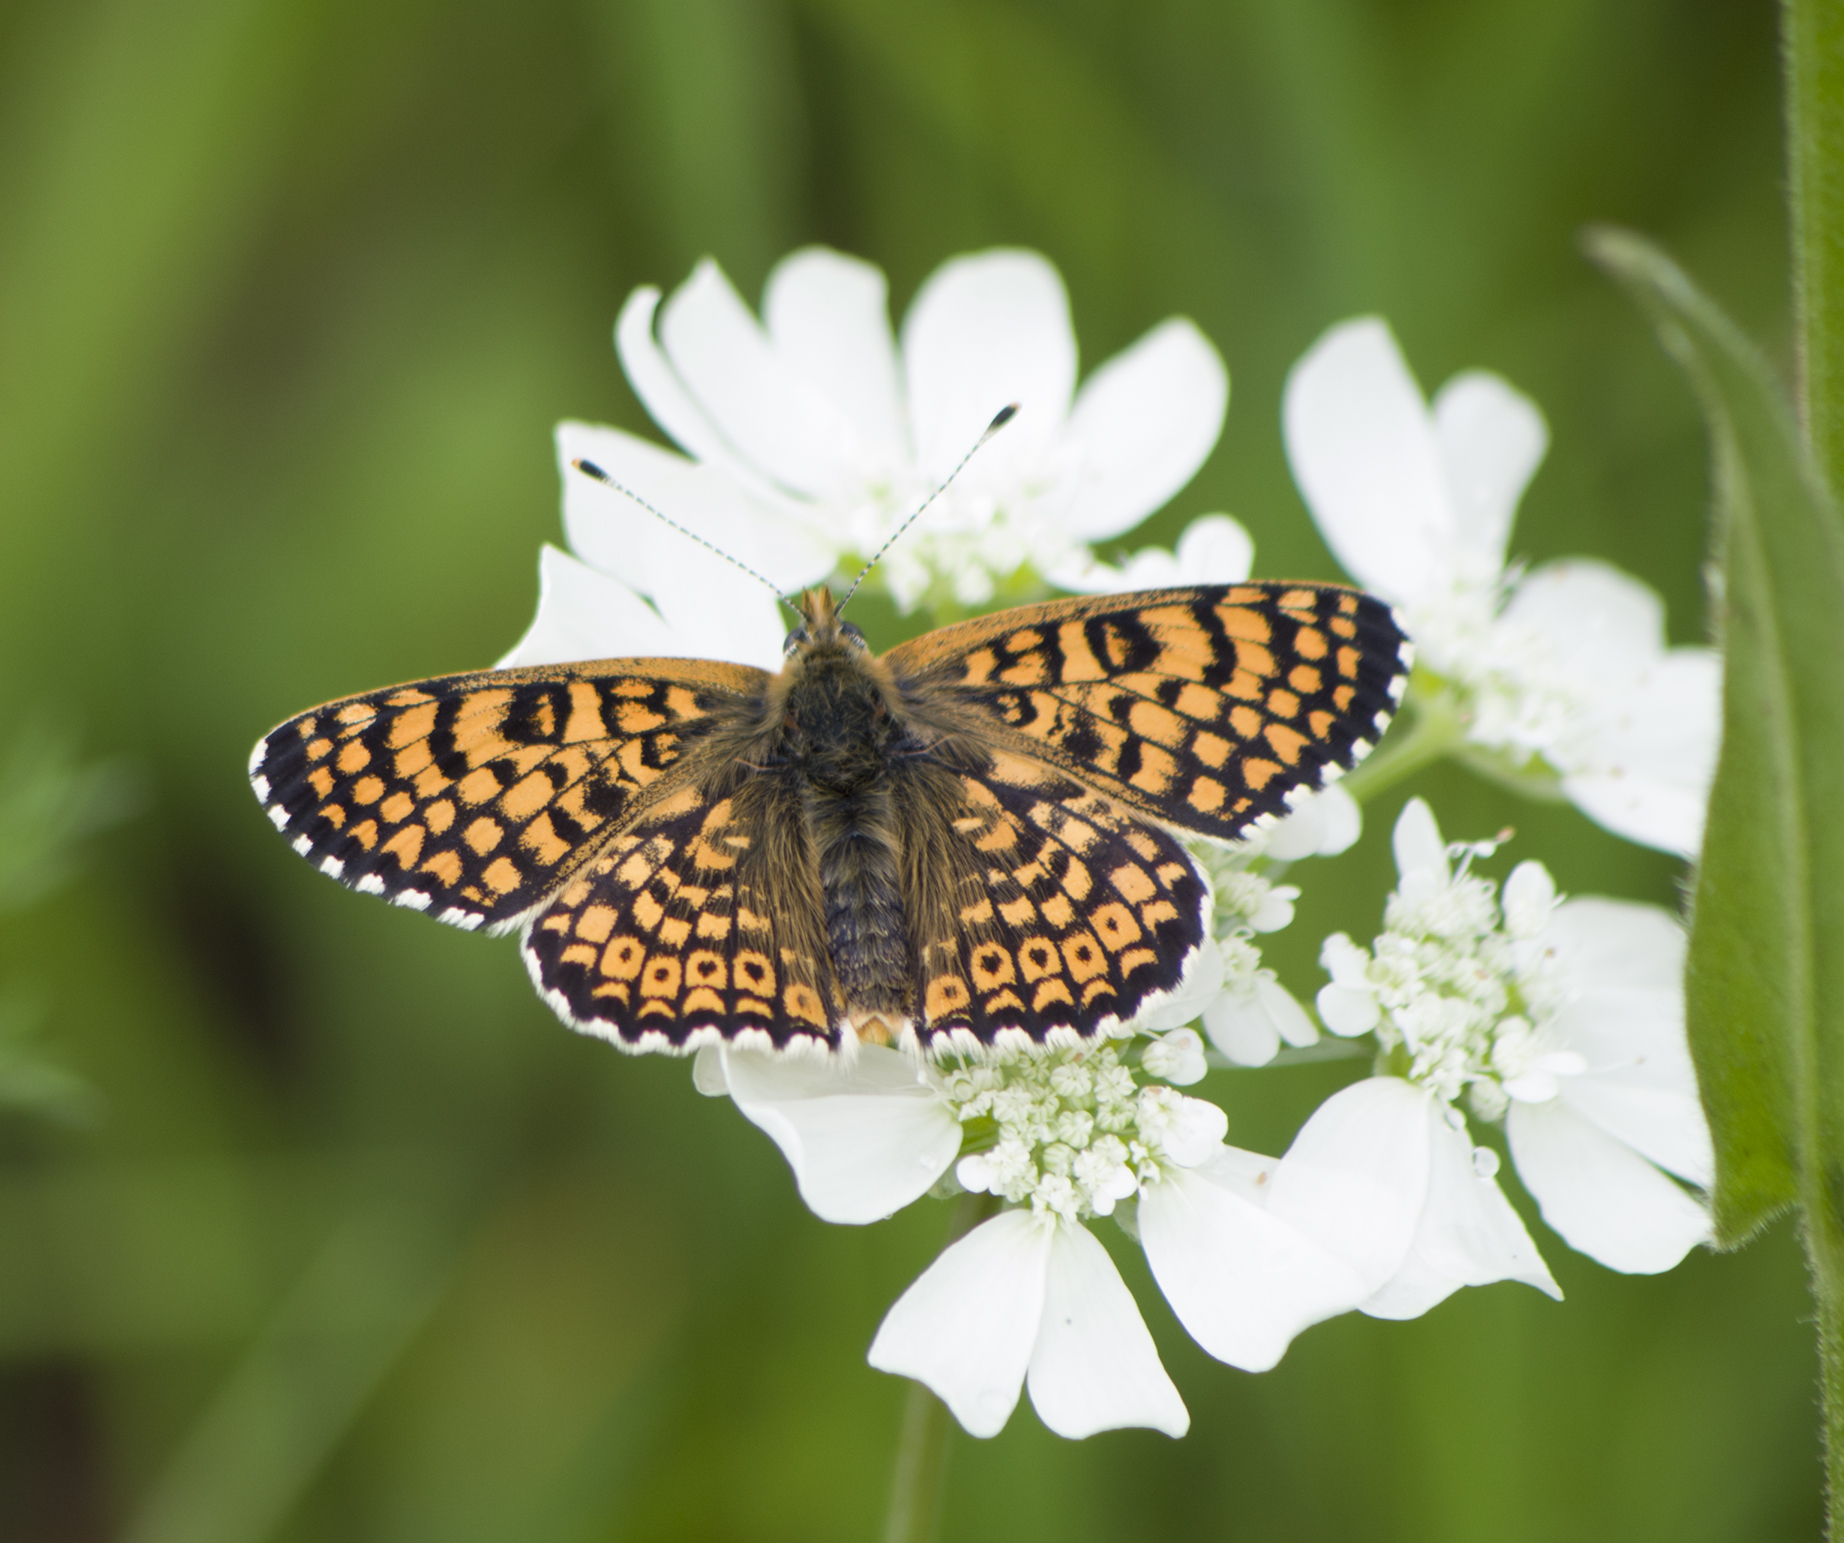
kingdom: Animalia
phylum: Arthropoda
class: Insecta
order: Lepidoptera
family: Nymphalidae
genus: Melitaea
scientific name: Melitaea cinxia
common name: Glanville fritillary
